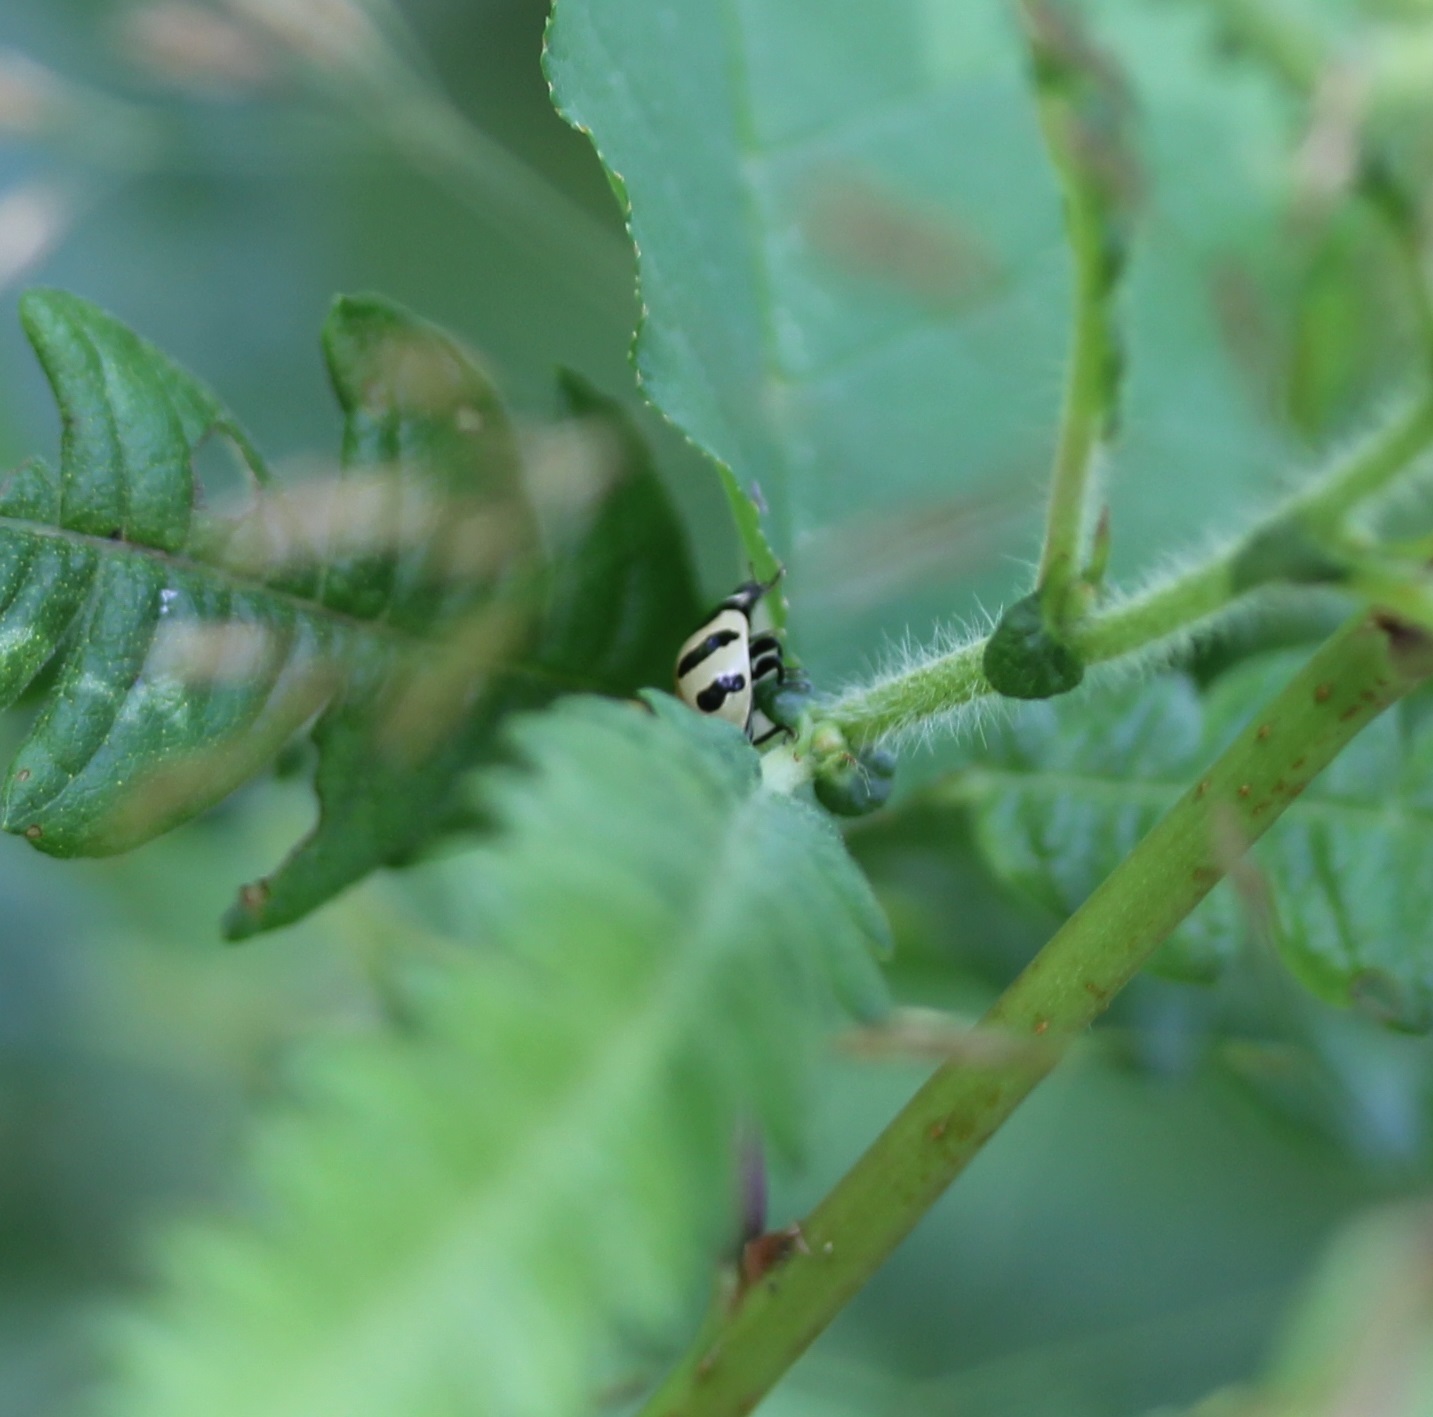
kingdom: Animalia
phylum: Arthropoda
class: Insecta
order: Coleoptera
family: Coccinellidae
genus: Coccinella
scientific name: Coccinella trifasciata
